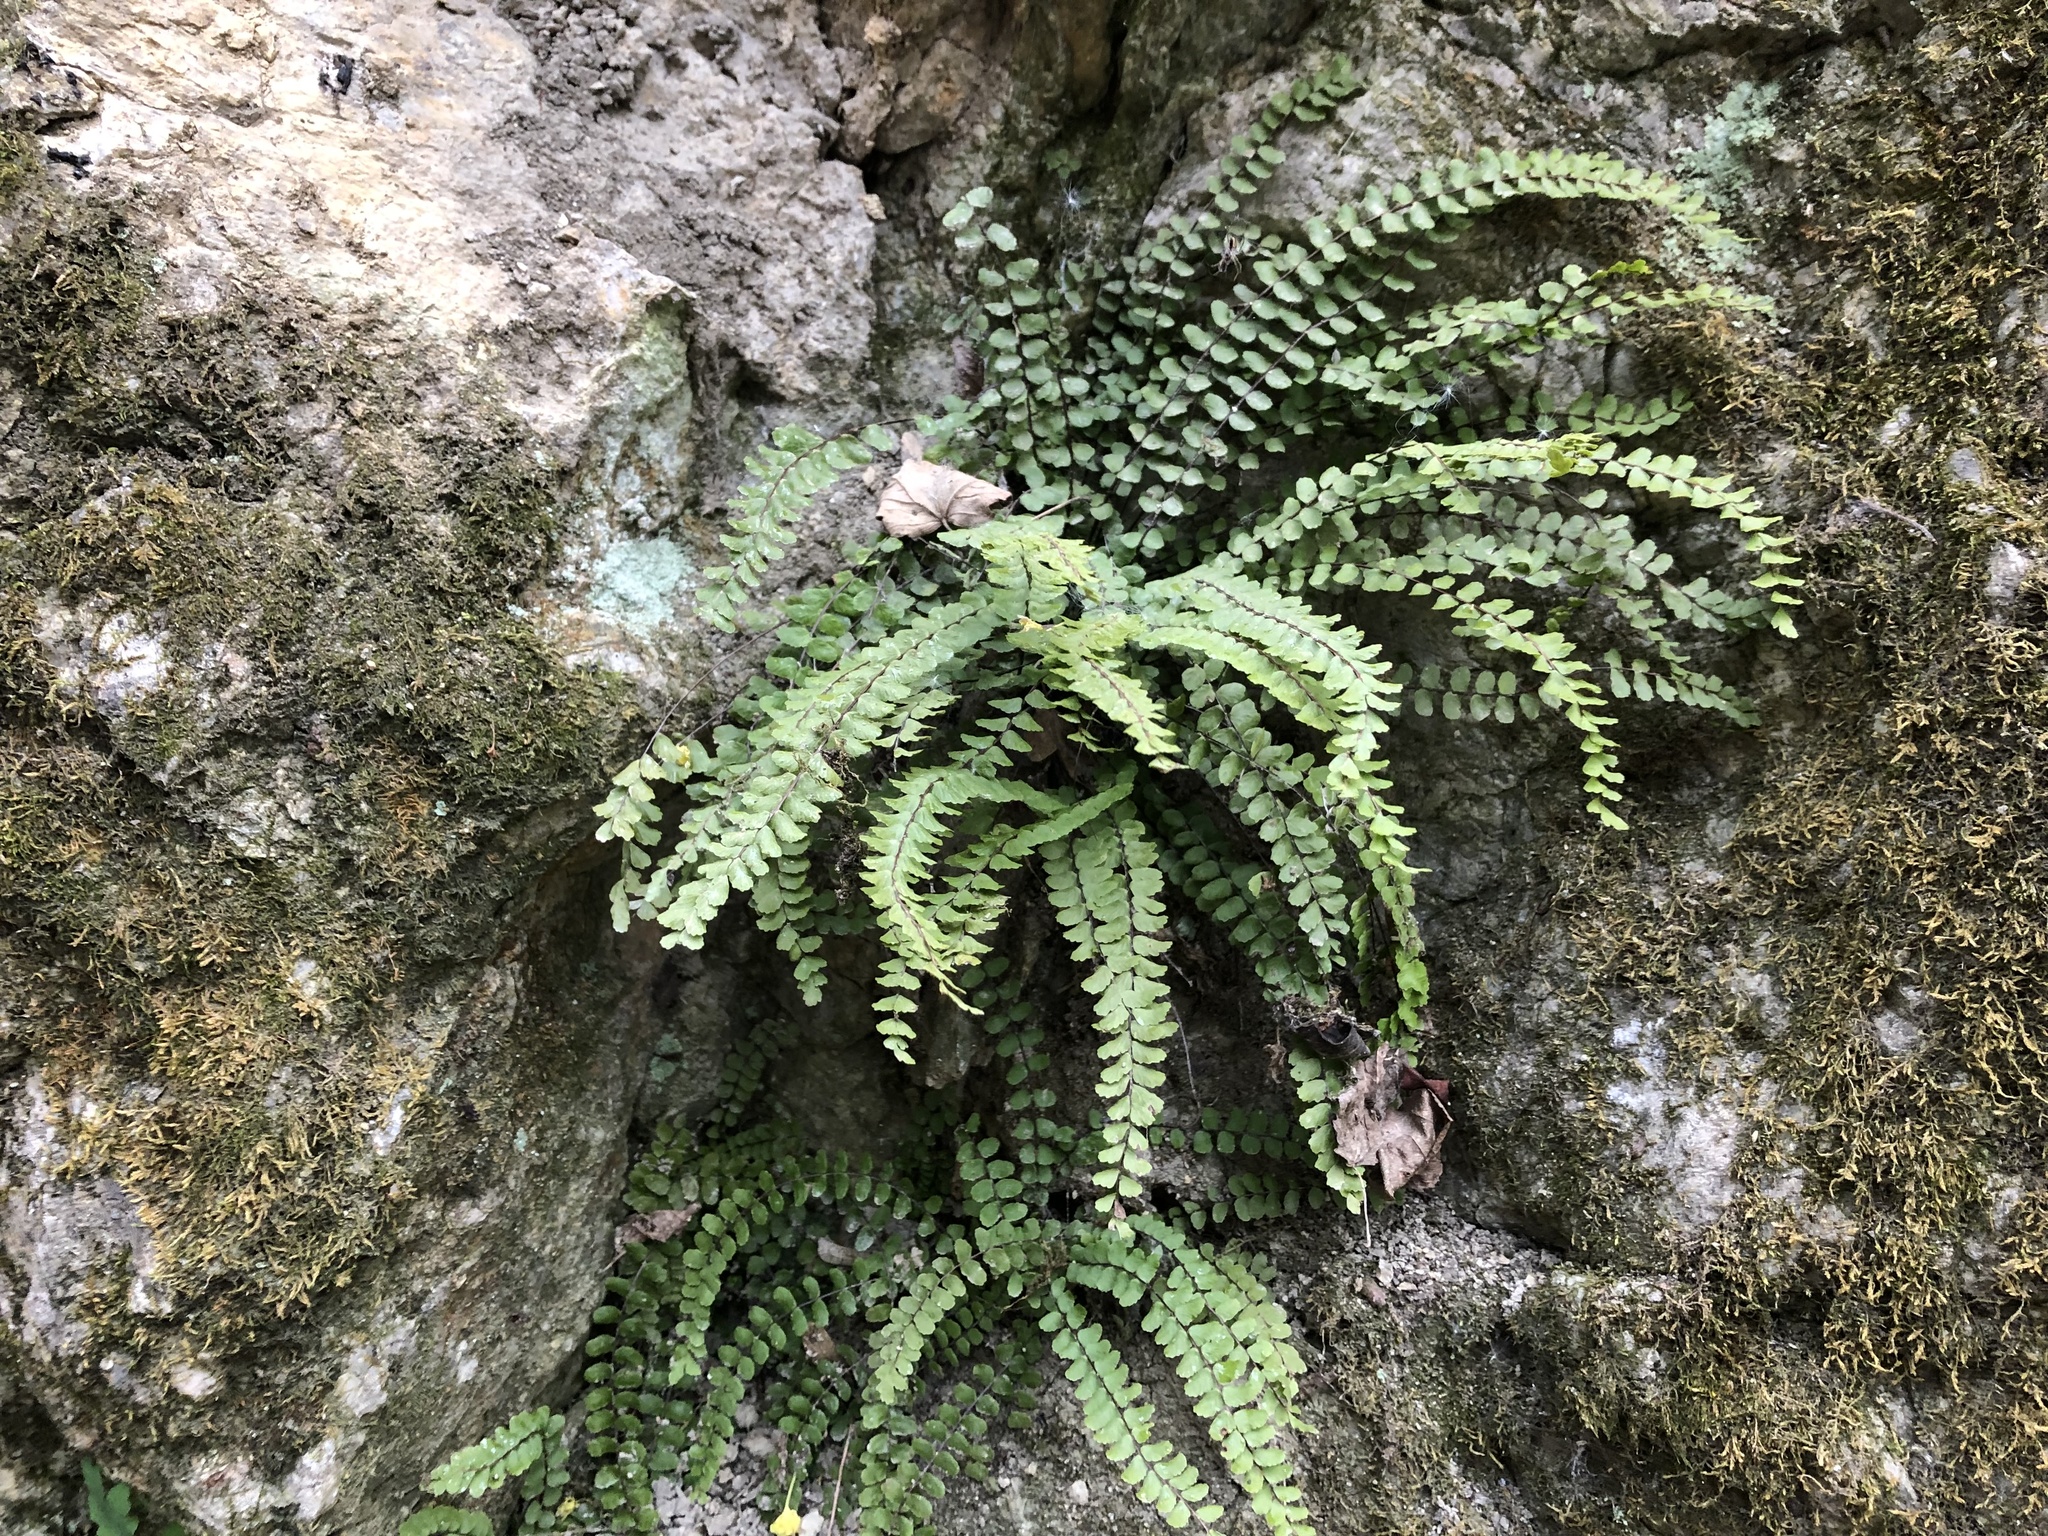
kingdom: Plantae
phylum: Tracheophyta
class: Polypodiopsida
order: Polypodiales
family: Aspleniaceae
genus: Asplenium
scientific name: Asplenium trichomanes
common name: Maidenhair spleenwort
